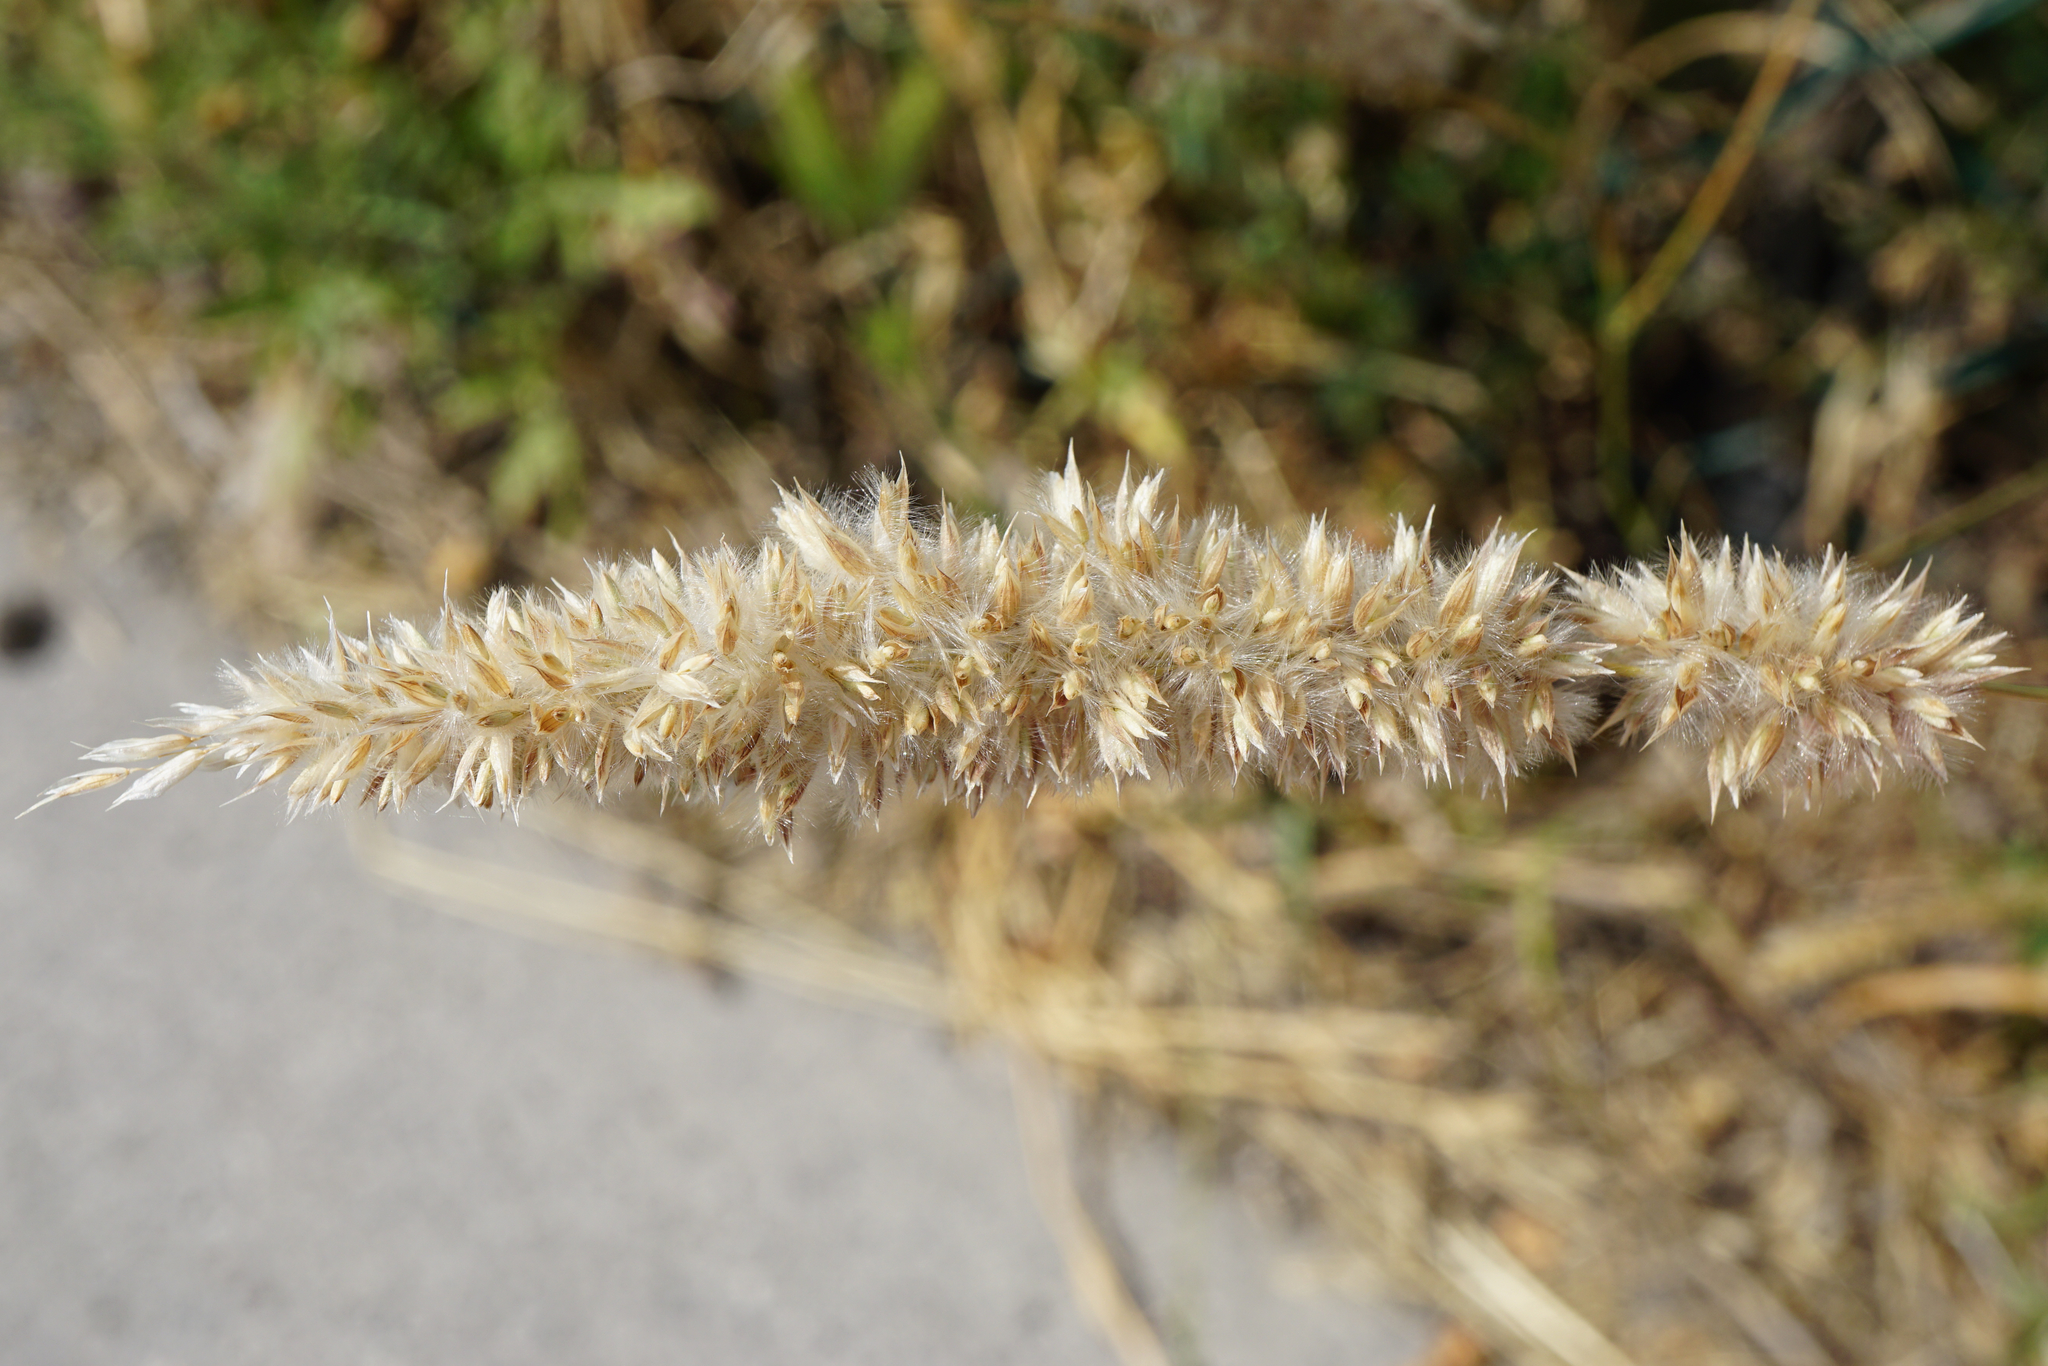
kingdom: Plantae
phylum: Tracheophyta
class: Liliopsida
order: Poales
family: Poaceae
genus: Melica
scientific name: Melica transsilvanica
